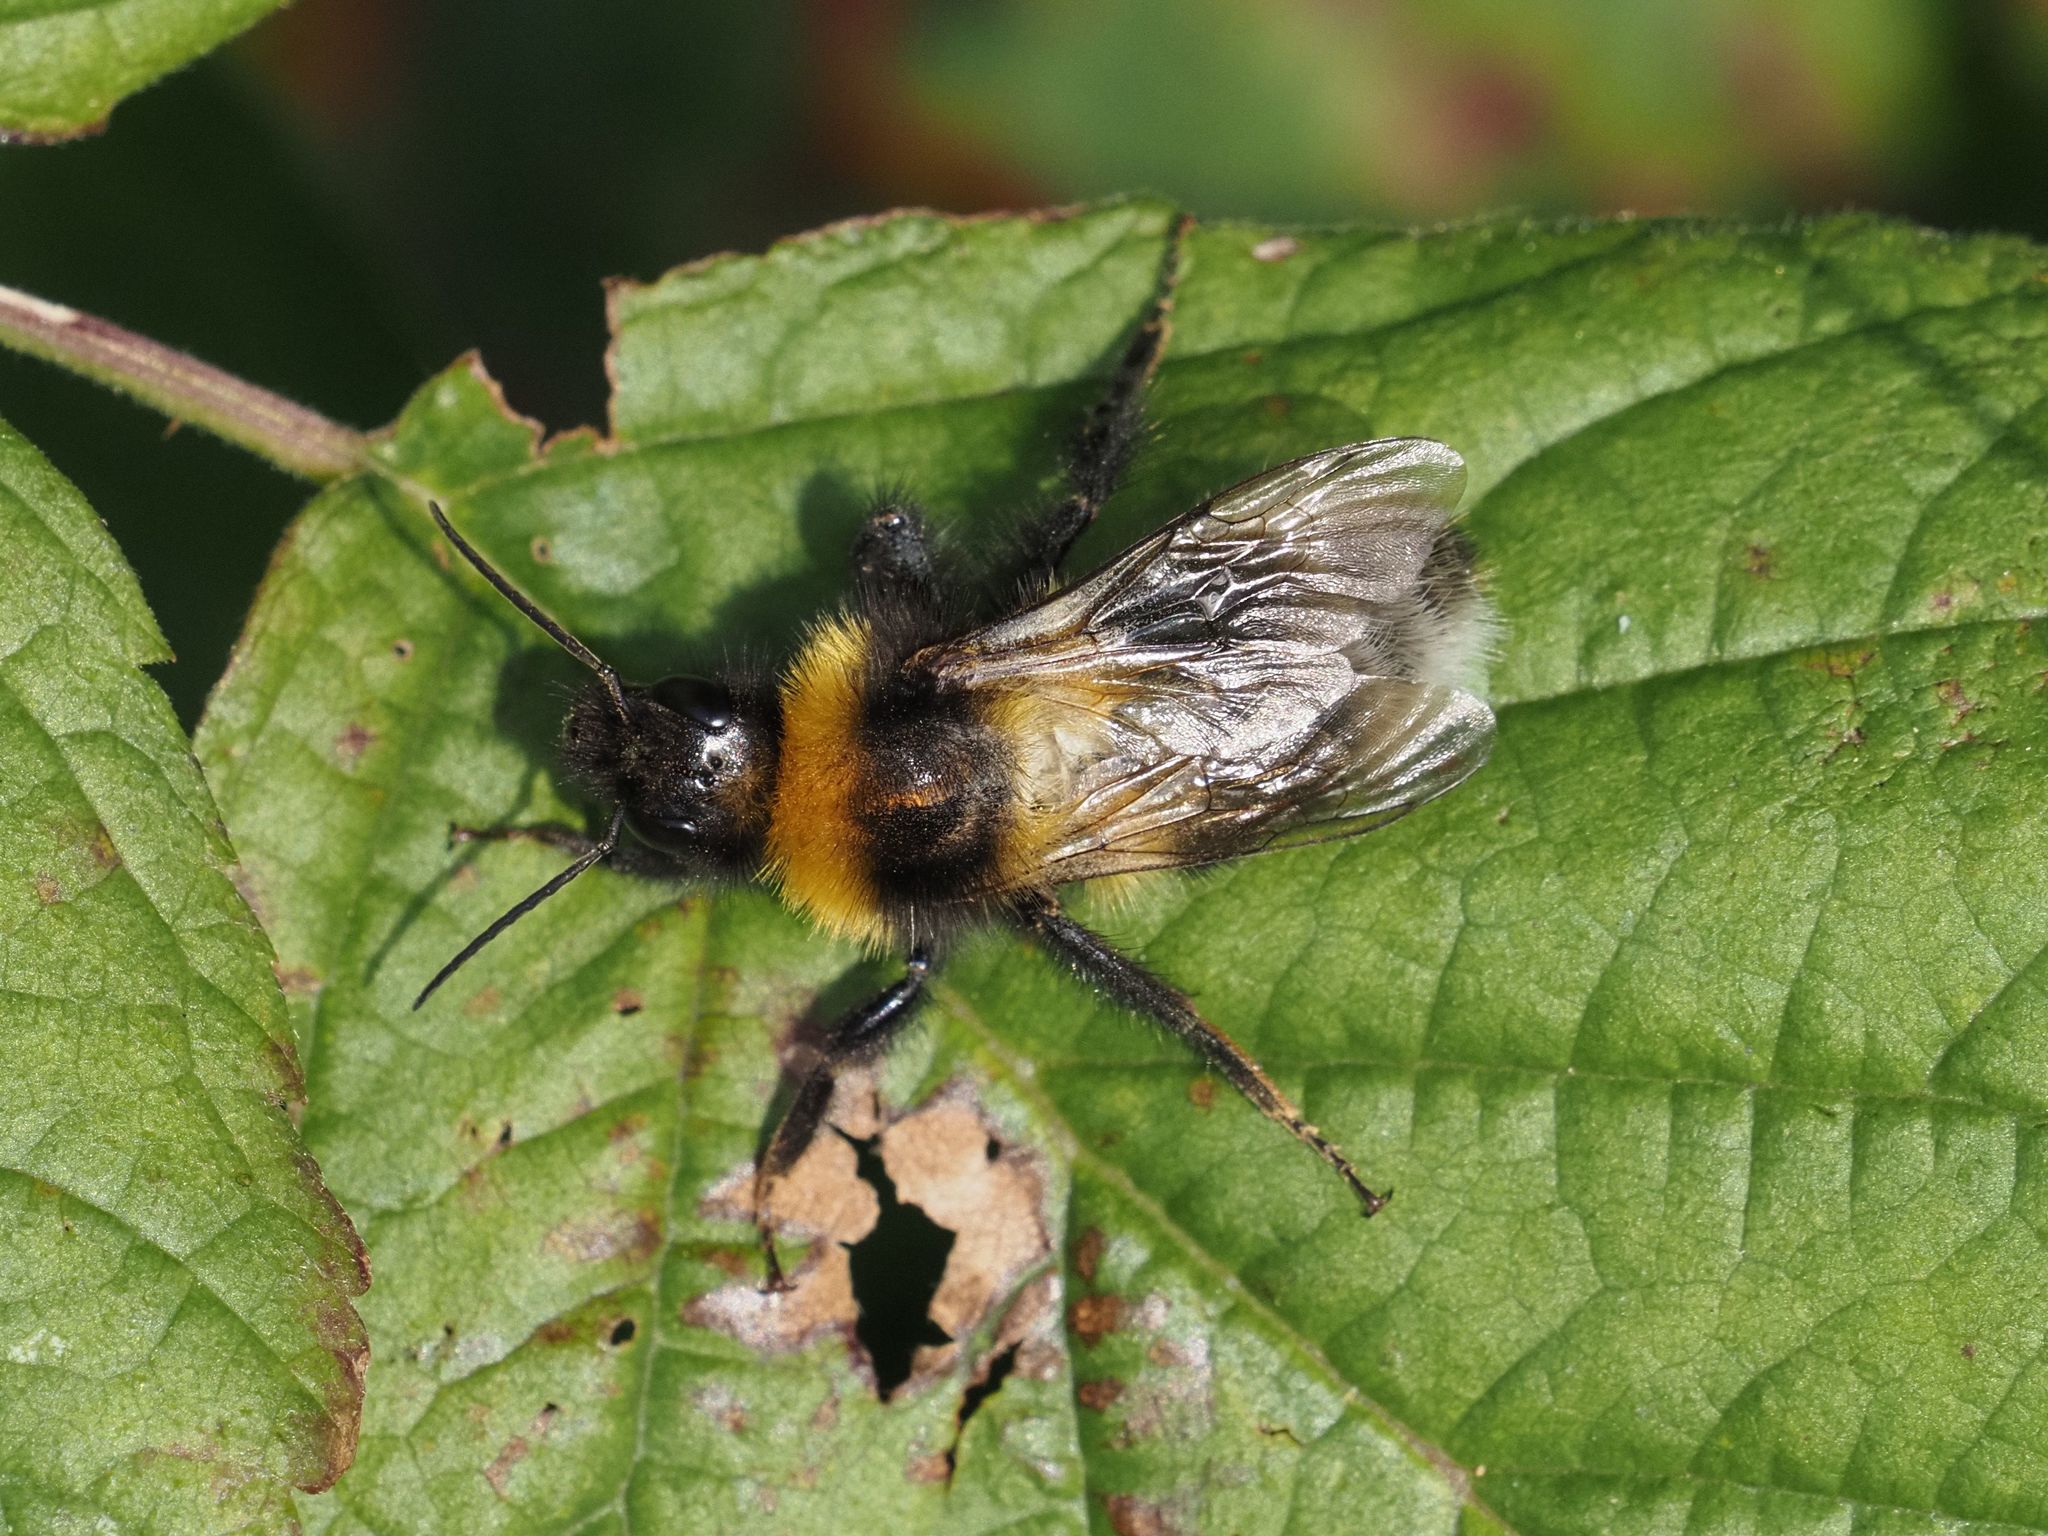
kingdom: Animalia
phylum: Arthropoda
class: Insecta
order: Hymenoptera
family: Apidae
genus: Bombus
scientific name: Bombus hortorum
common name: Garden bumblebee
